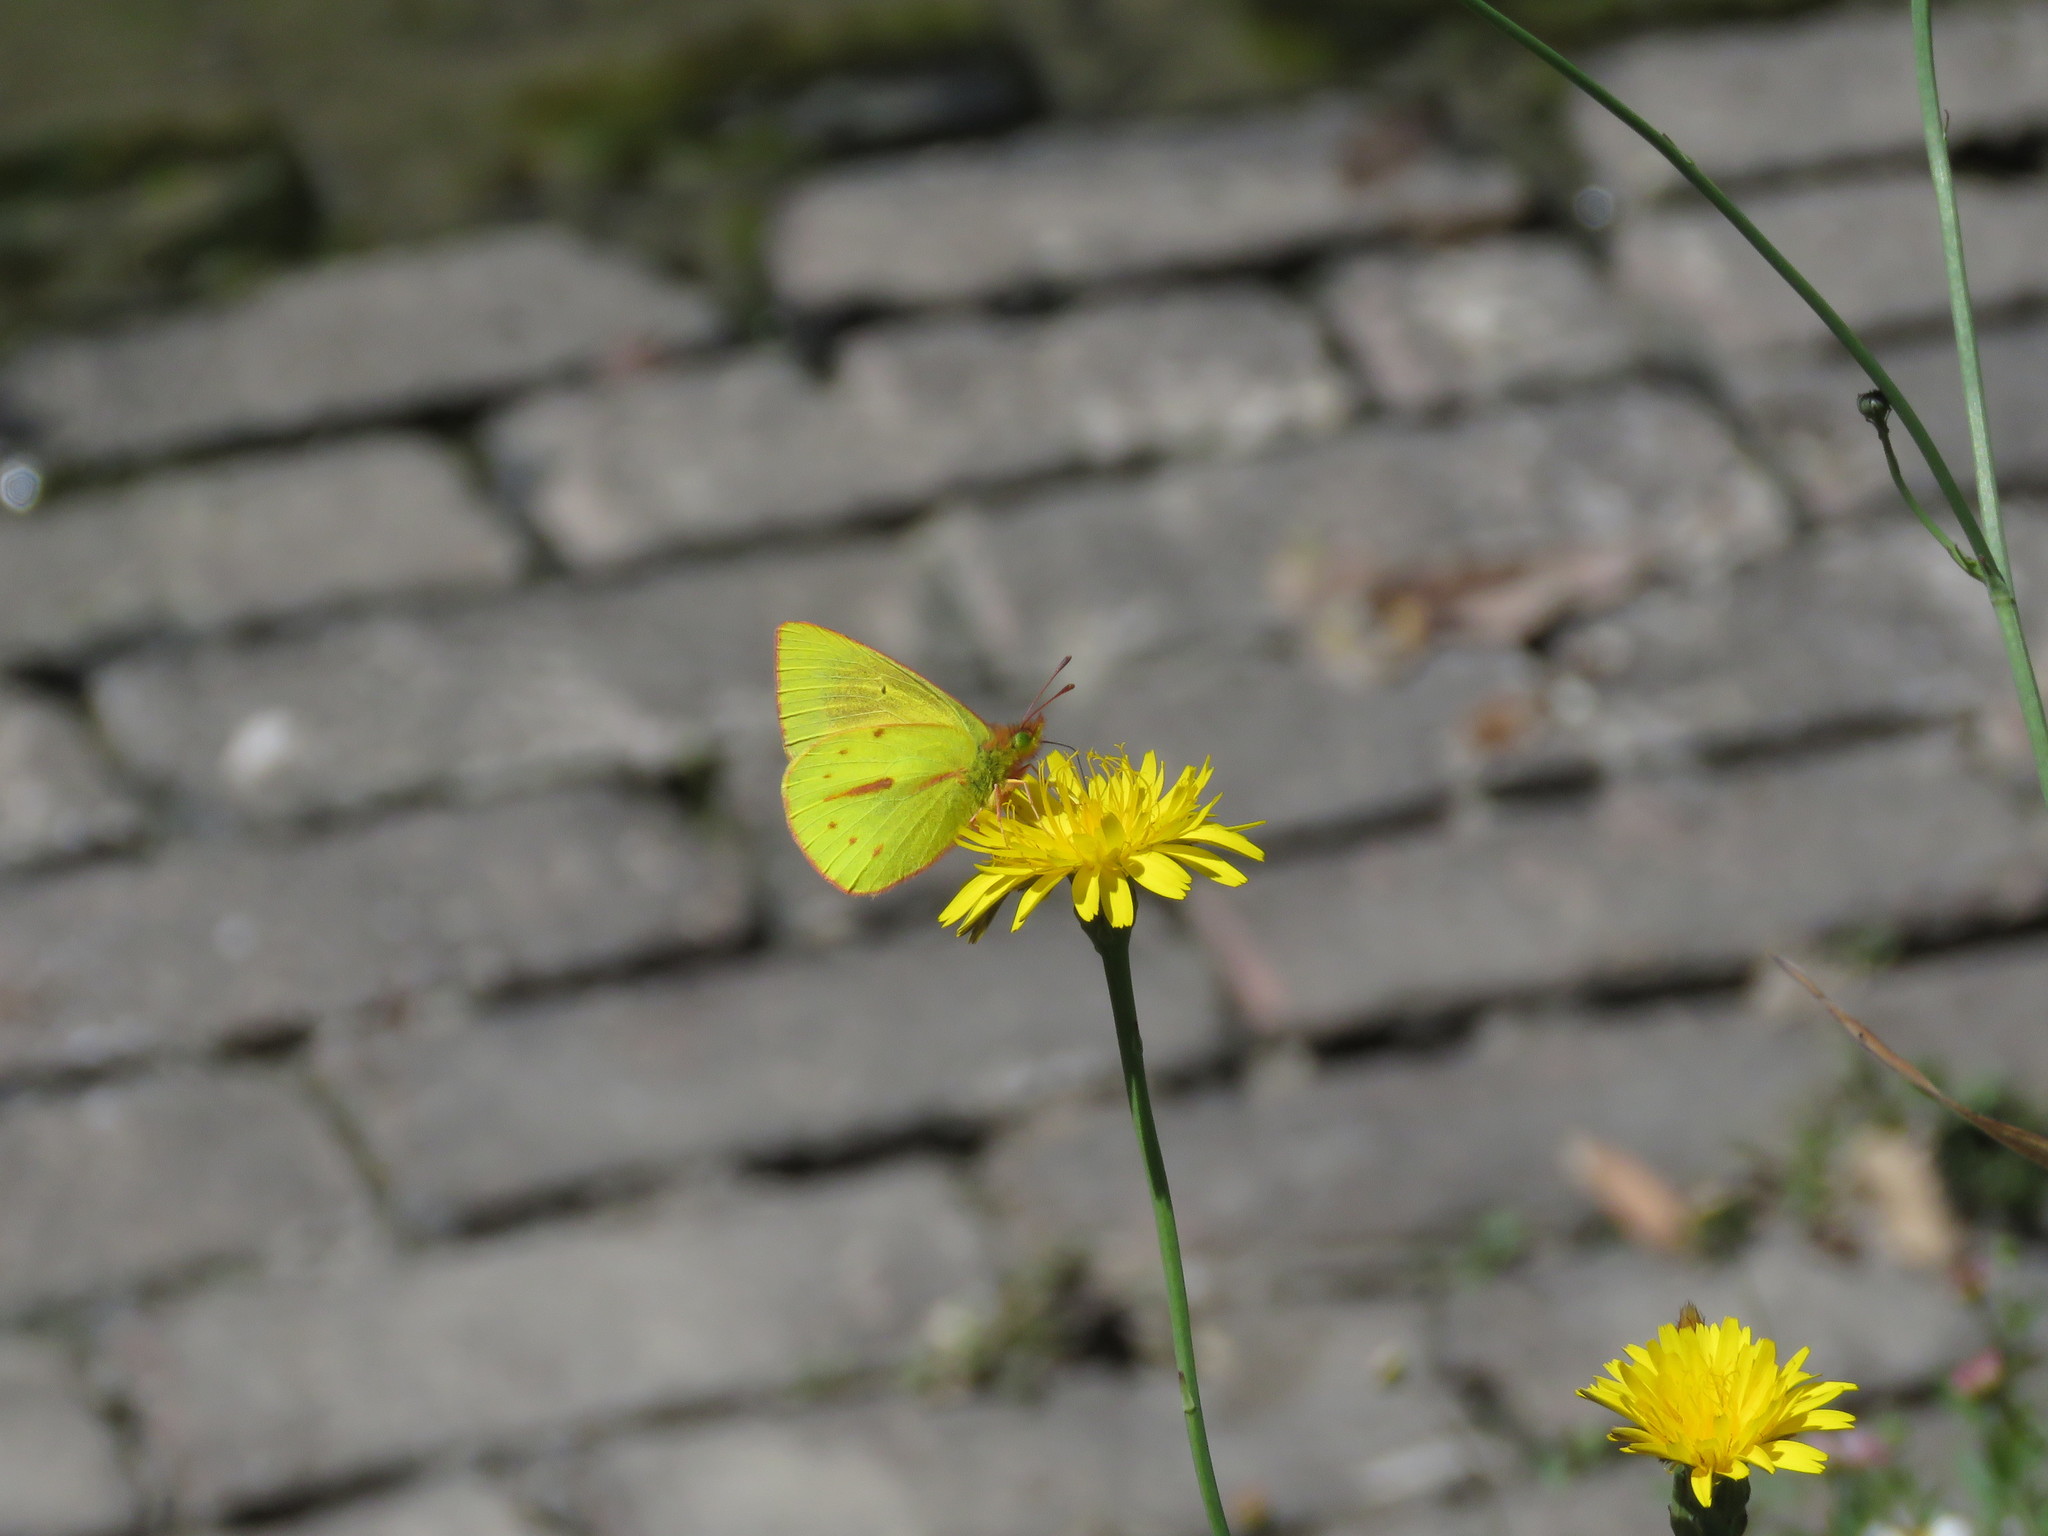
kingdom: Animalia
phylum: Arthropoda
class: Insecta
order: Lepidoptera
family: Pieridae
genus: Colias
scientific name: Colias dimera
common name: Dimera sulphur
